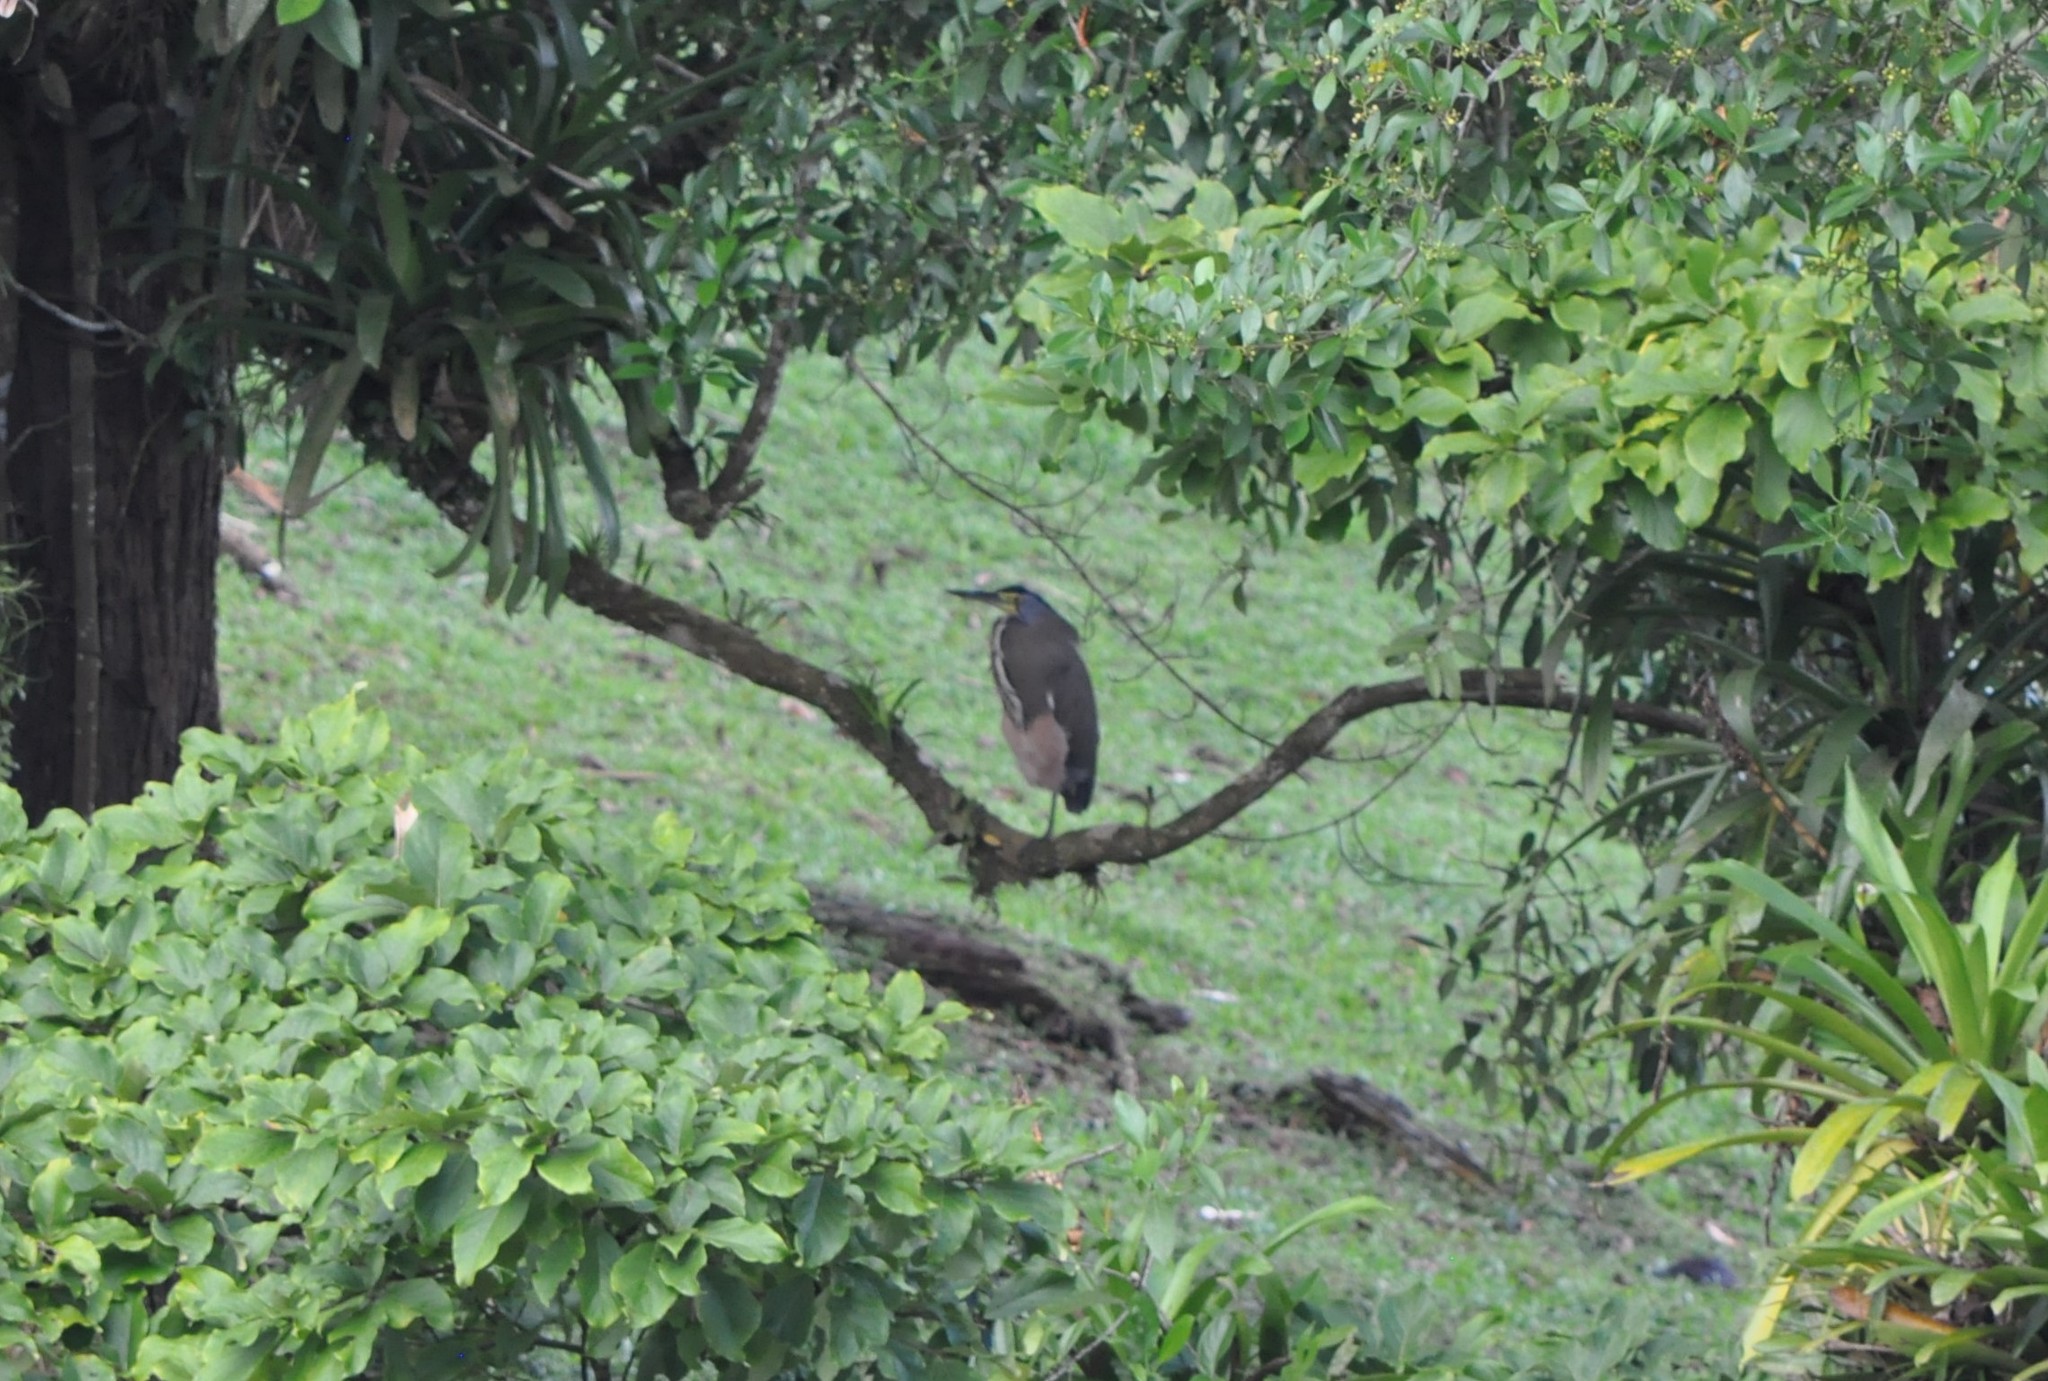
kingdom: Animalia
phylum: Chordata
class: Aves
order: Pelecaniformes
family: Ardeidae
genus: Tigrisoma
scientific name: Tigrisoma mexicanum
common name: Bare-throated tiger-heron
